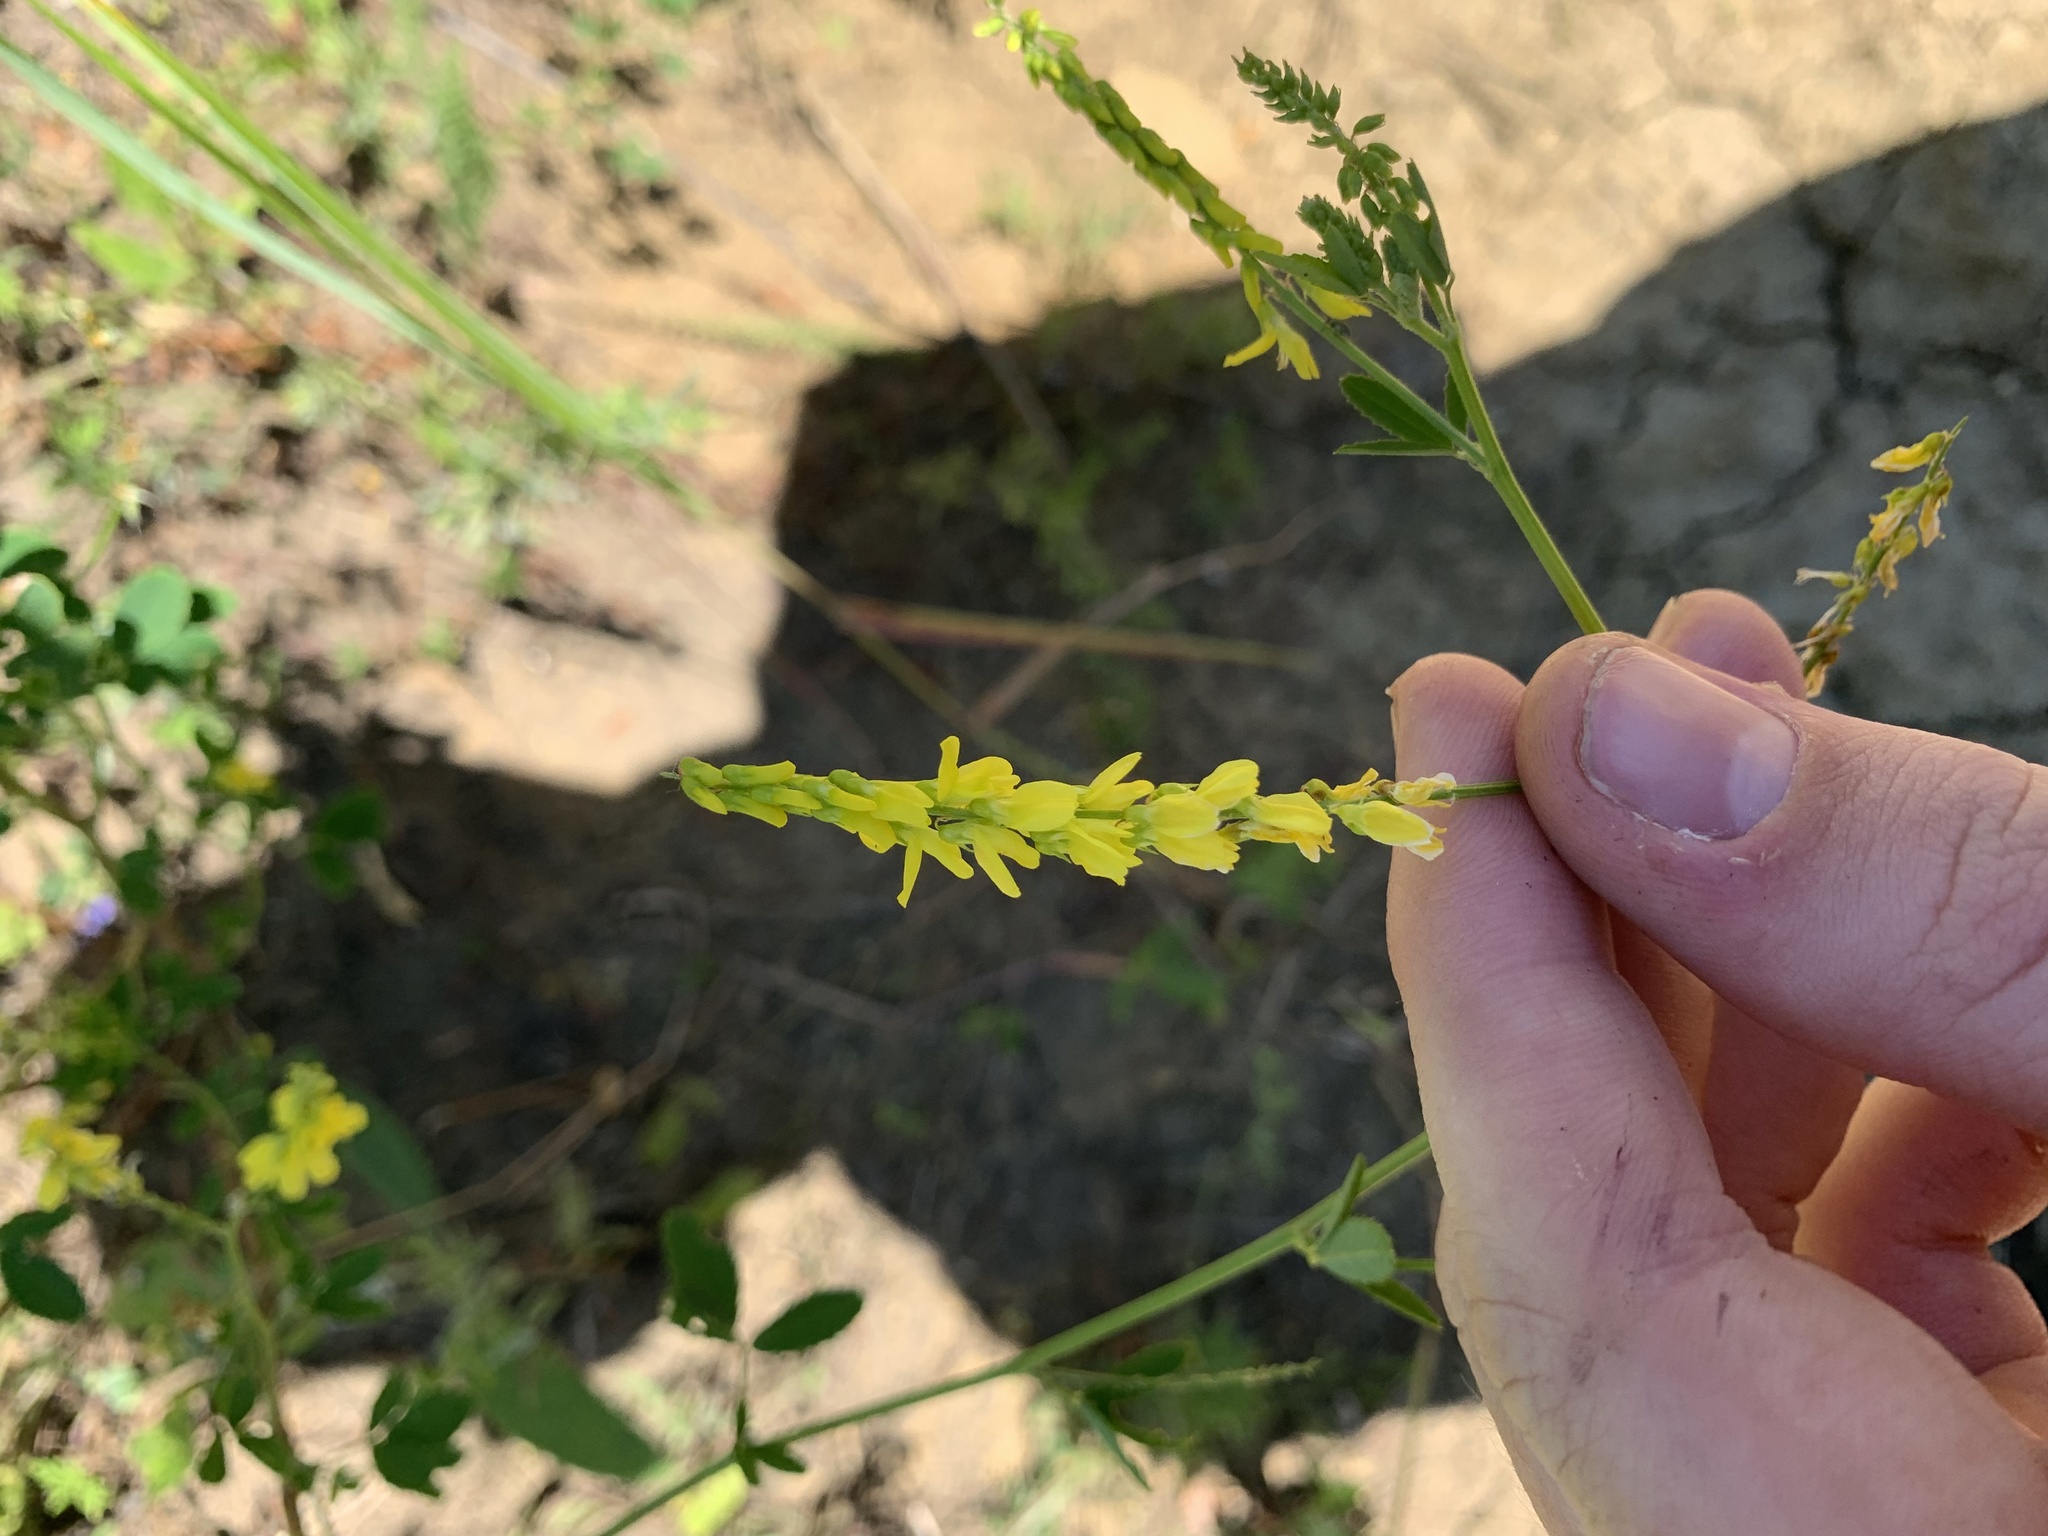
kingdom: Plantae
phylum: Tracheophyta
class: Magnoliopsida
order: Fabales
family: Fabaceae
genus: Melilotus
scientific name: Melilotus officinalis
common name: Sweetclover
